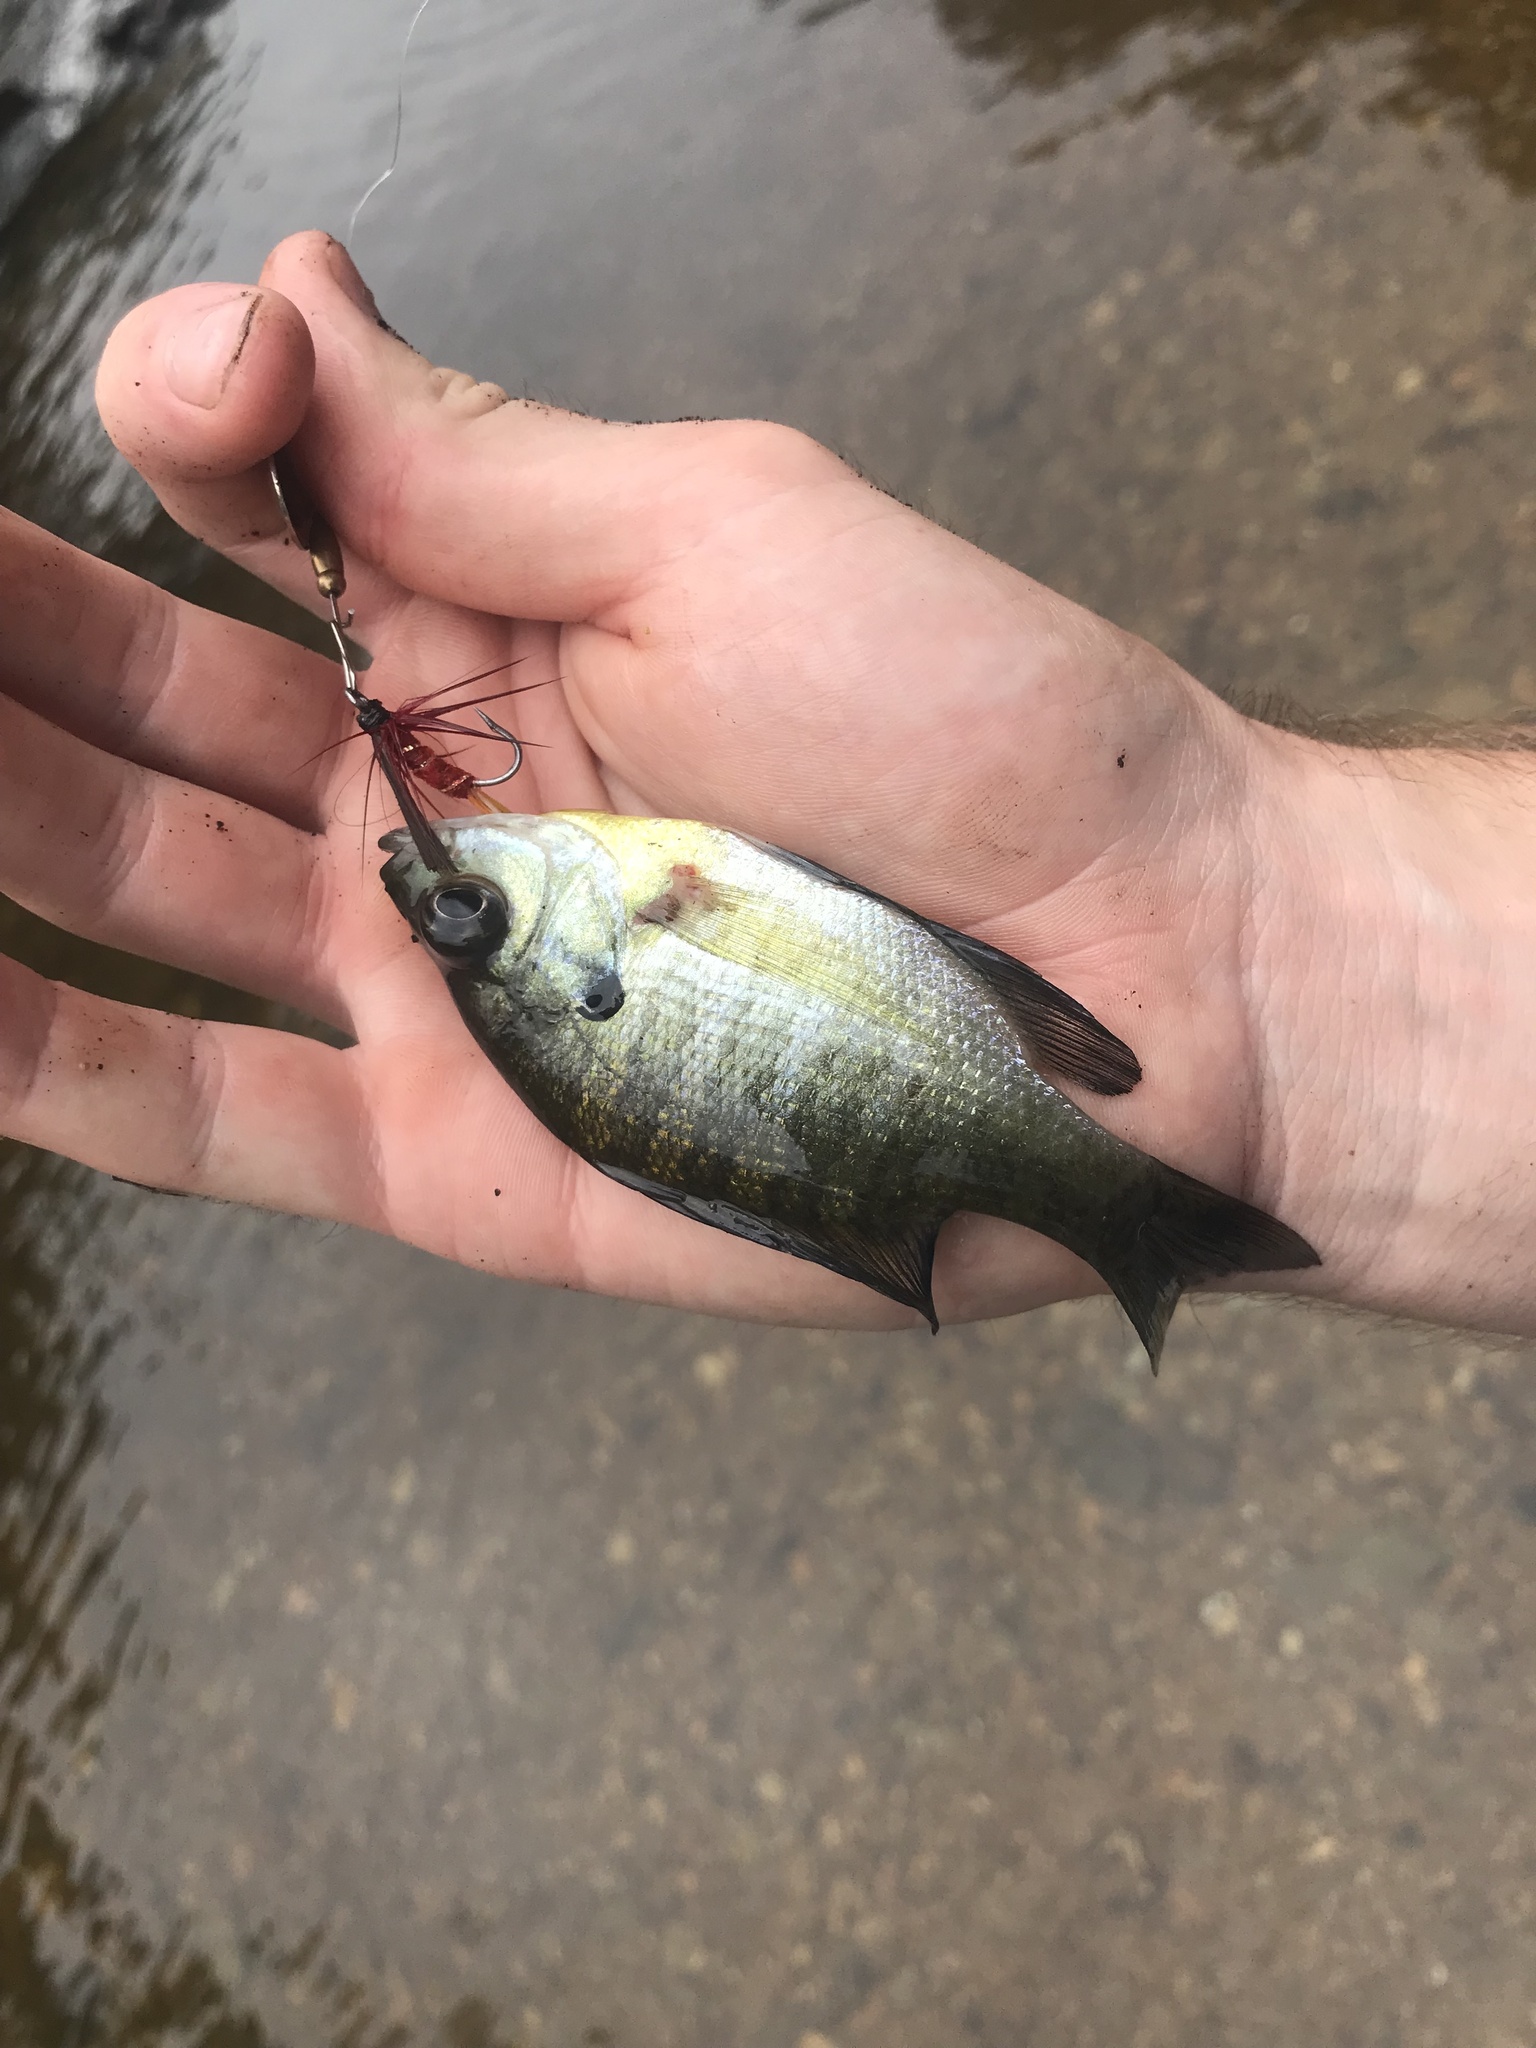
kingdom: Animalia
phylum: Chordata
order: Perciformes
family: Centrarchidae
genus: Lepomis
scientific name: Lepomis macrochirus
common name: Bluegill
